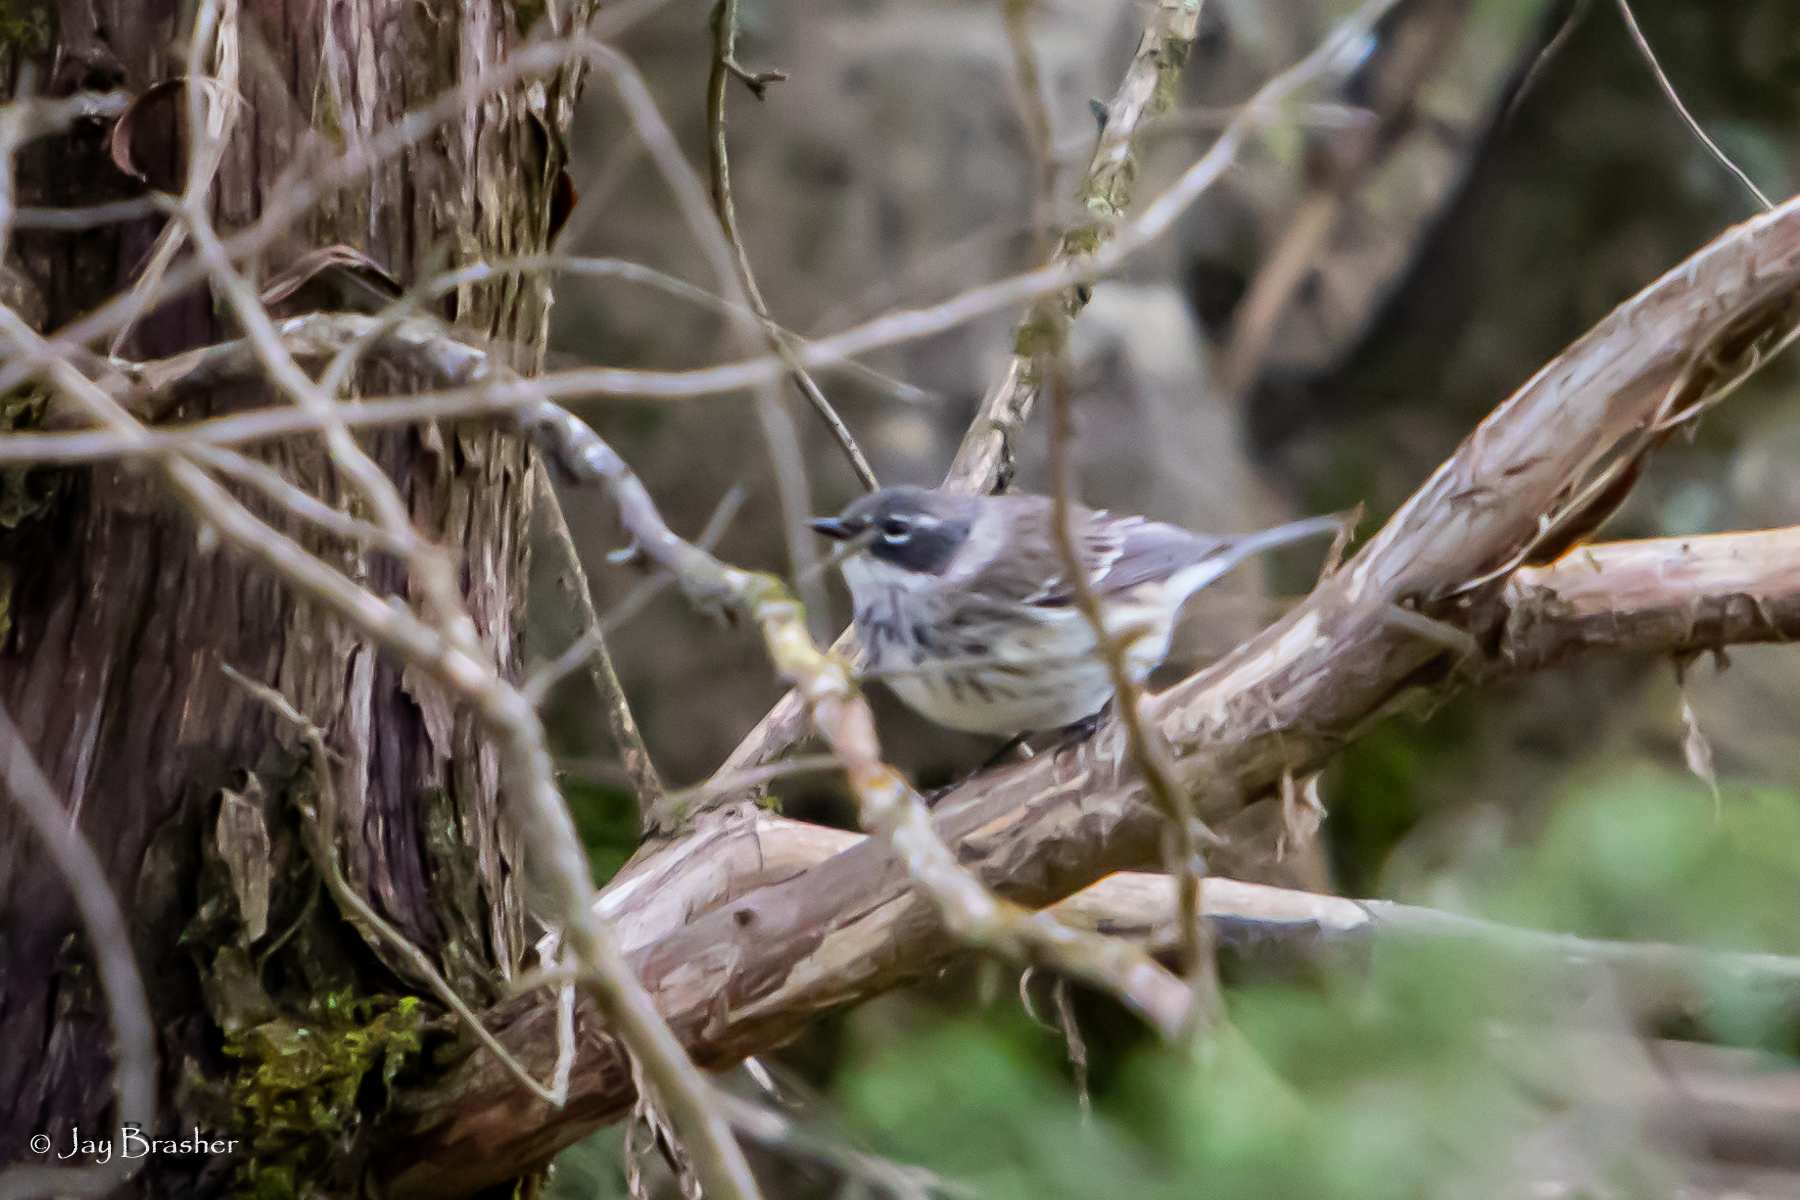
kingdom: Animalia
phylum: Chordata
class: Aves
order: Passeriformes
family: Parulidae
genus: Setophaga
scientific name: Setophaga coronata
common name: Myrtle warbler
